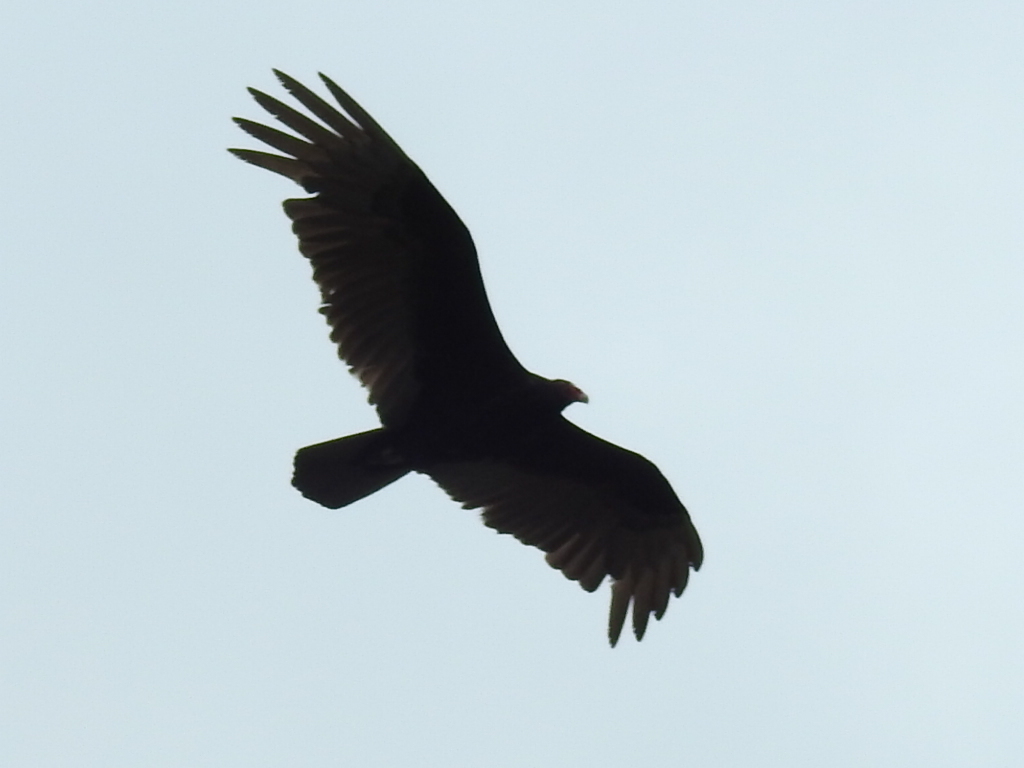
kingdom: Animalia
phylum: Chordata
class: Aves
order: Accipitriformes
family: Cathartidae
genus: Cathartes
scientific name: Cathartes aura
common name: Turkey vulture
